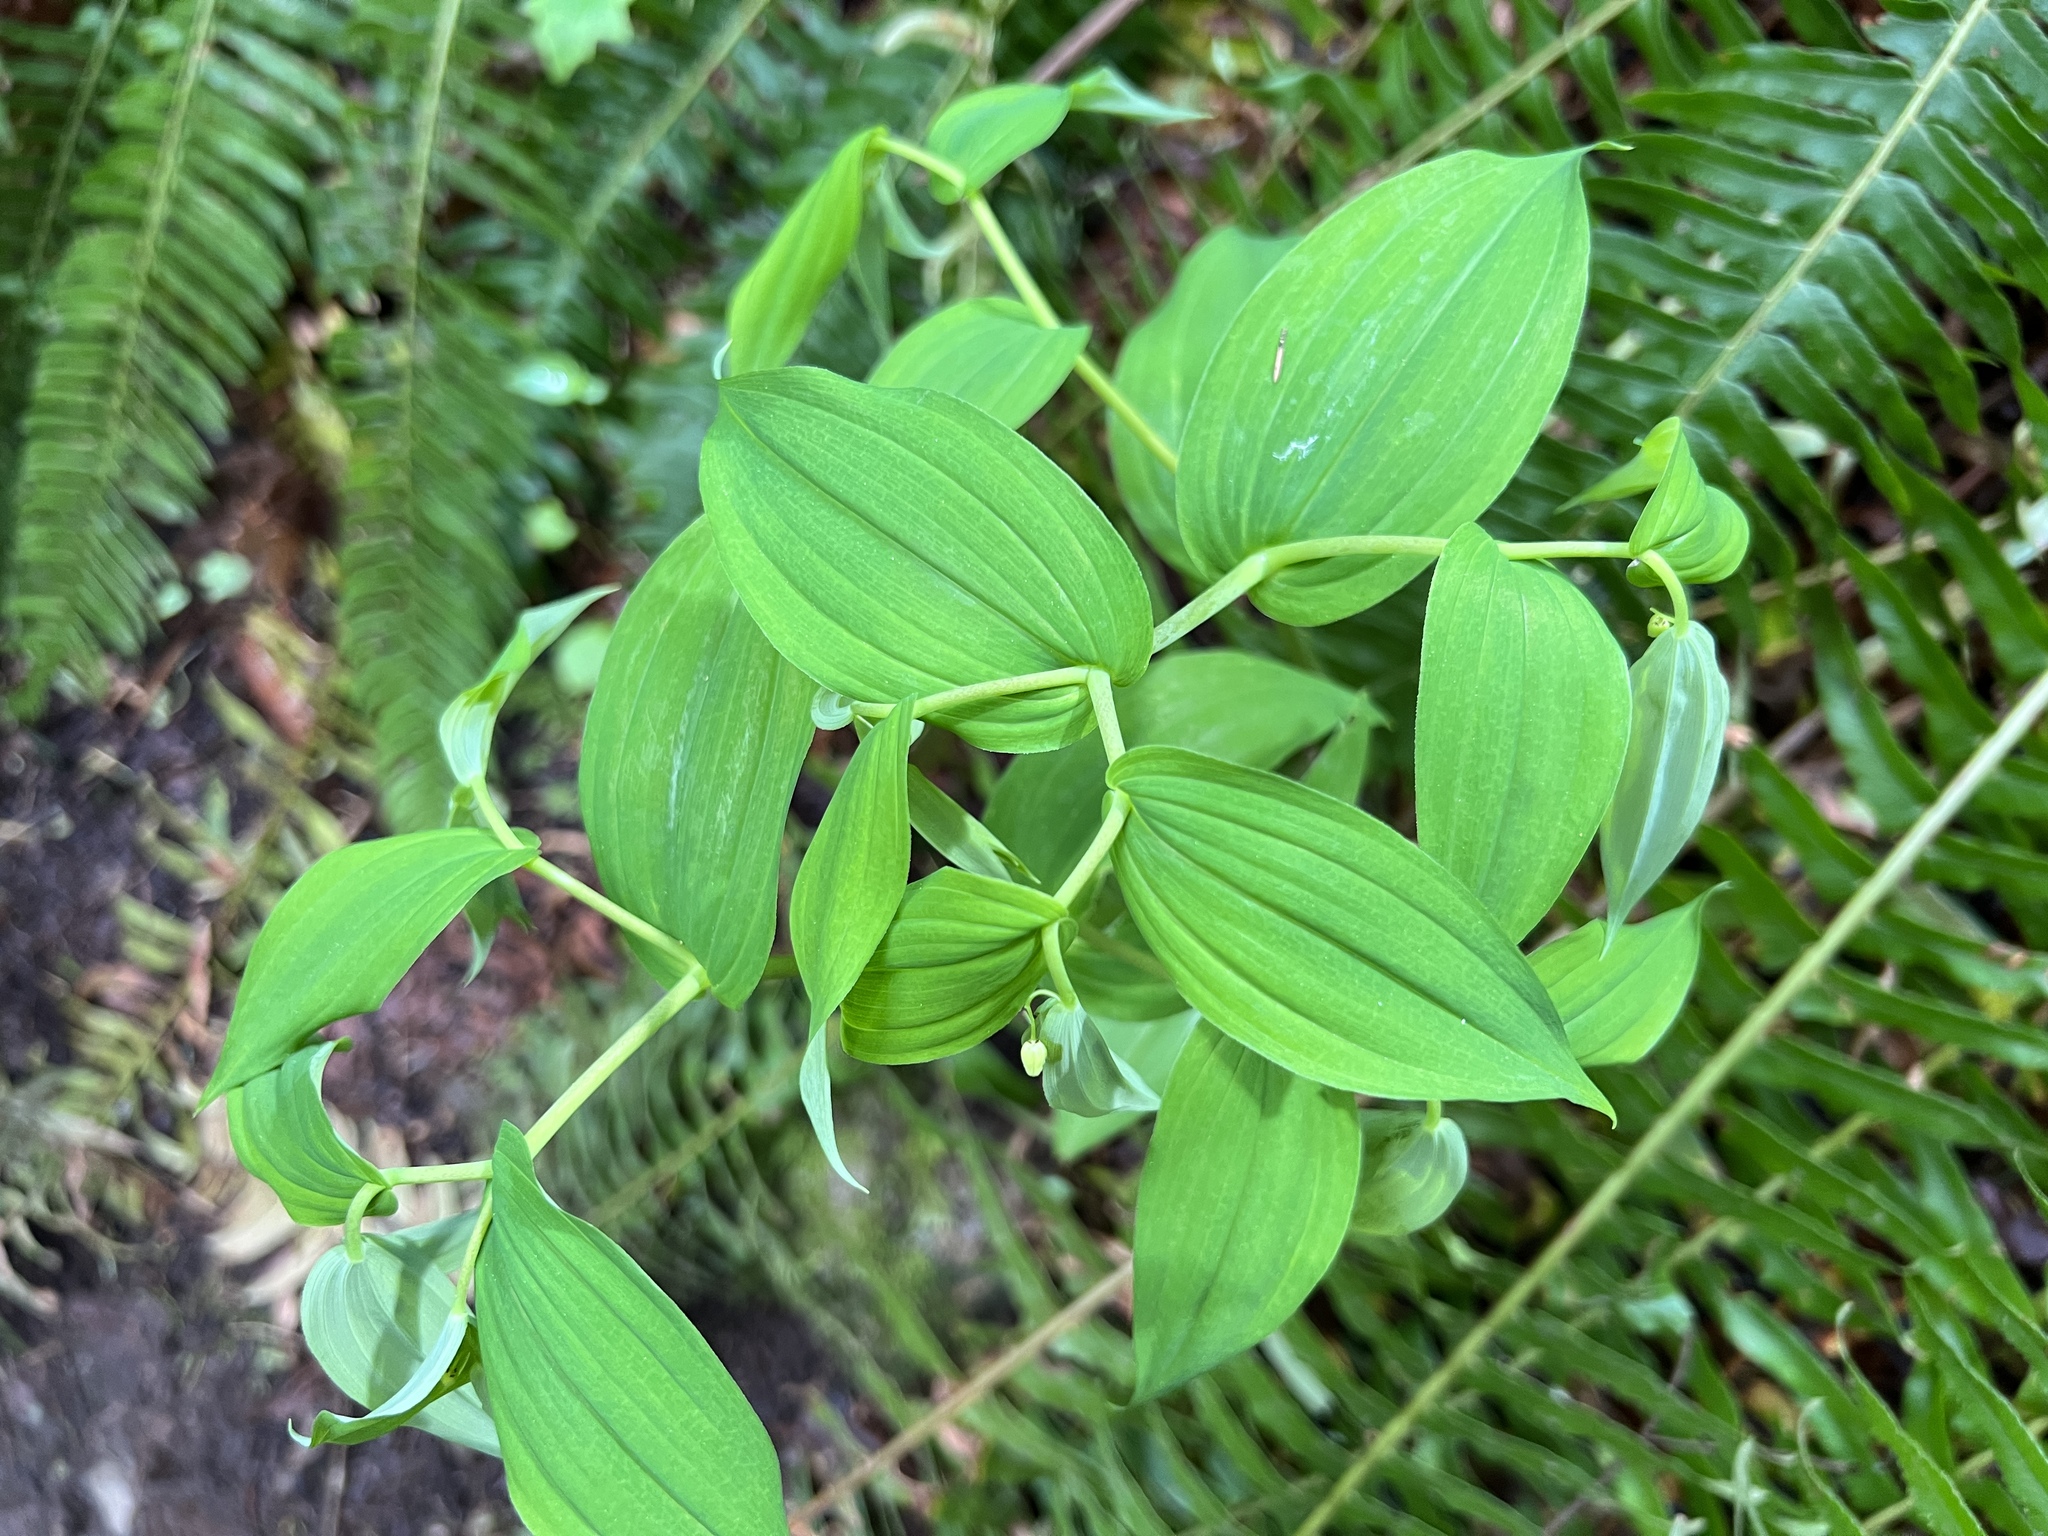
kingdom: Plantae
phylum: Tracheophyta
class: Liliopsida
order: Liliales
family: Liliaceae
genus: Streptopus
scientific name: Streptopus amplexifolius
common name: Clasp twisted stalk
